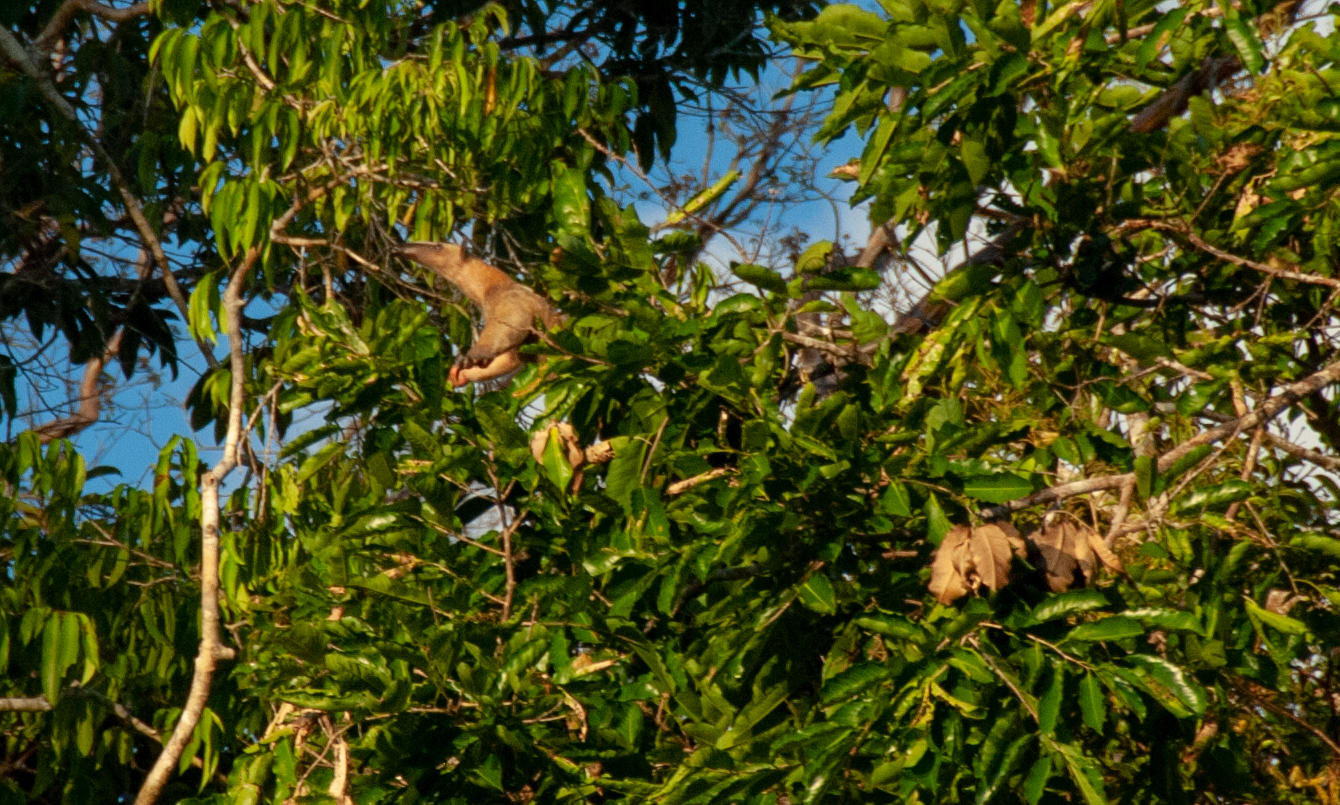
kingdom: Animalia
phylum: Chordata
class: Mammalia
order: Pilosa
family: Myrmecophagidae
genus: Tamandua
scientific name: Tamandua tetradactyla
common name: Southern tamandua
